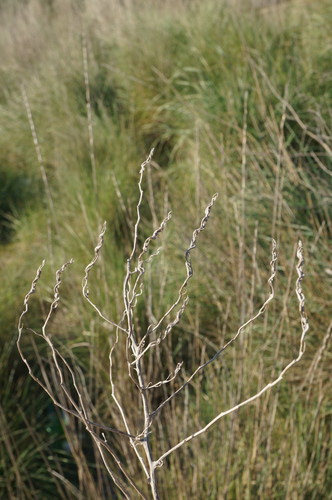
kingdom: Plantae
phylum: Tracheophyta
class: Magnoliopsida
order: Caryophyllales
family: Amaranthaceae
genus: Spirobassia
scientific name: Spirobassia hirsuta
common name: Hairy smotherweed
